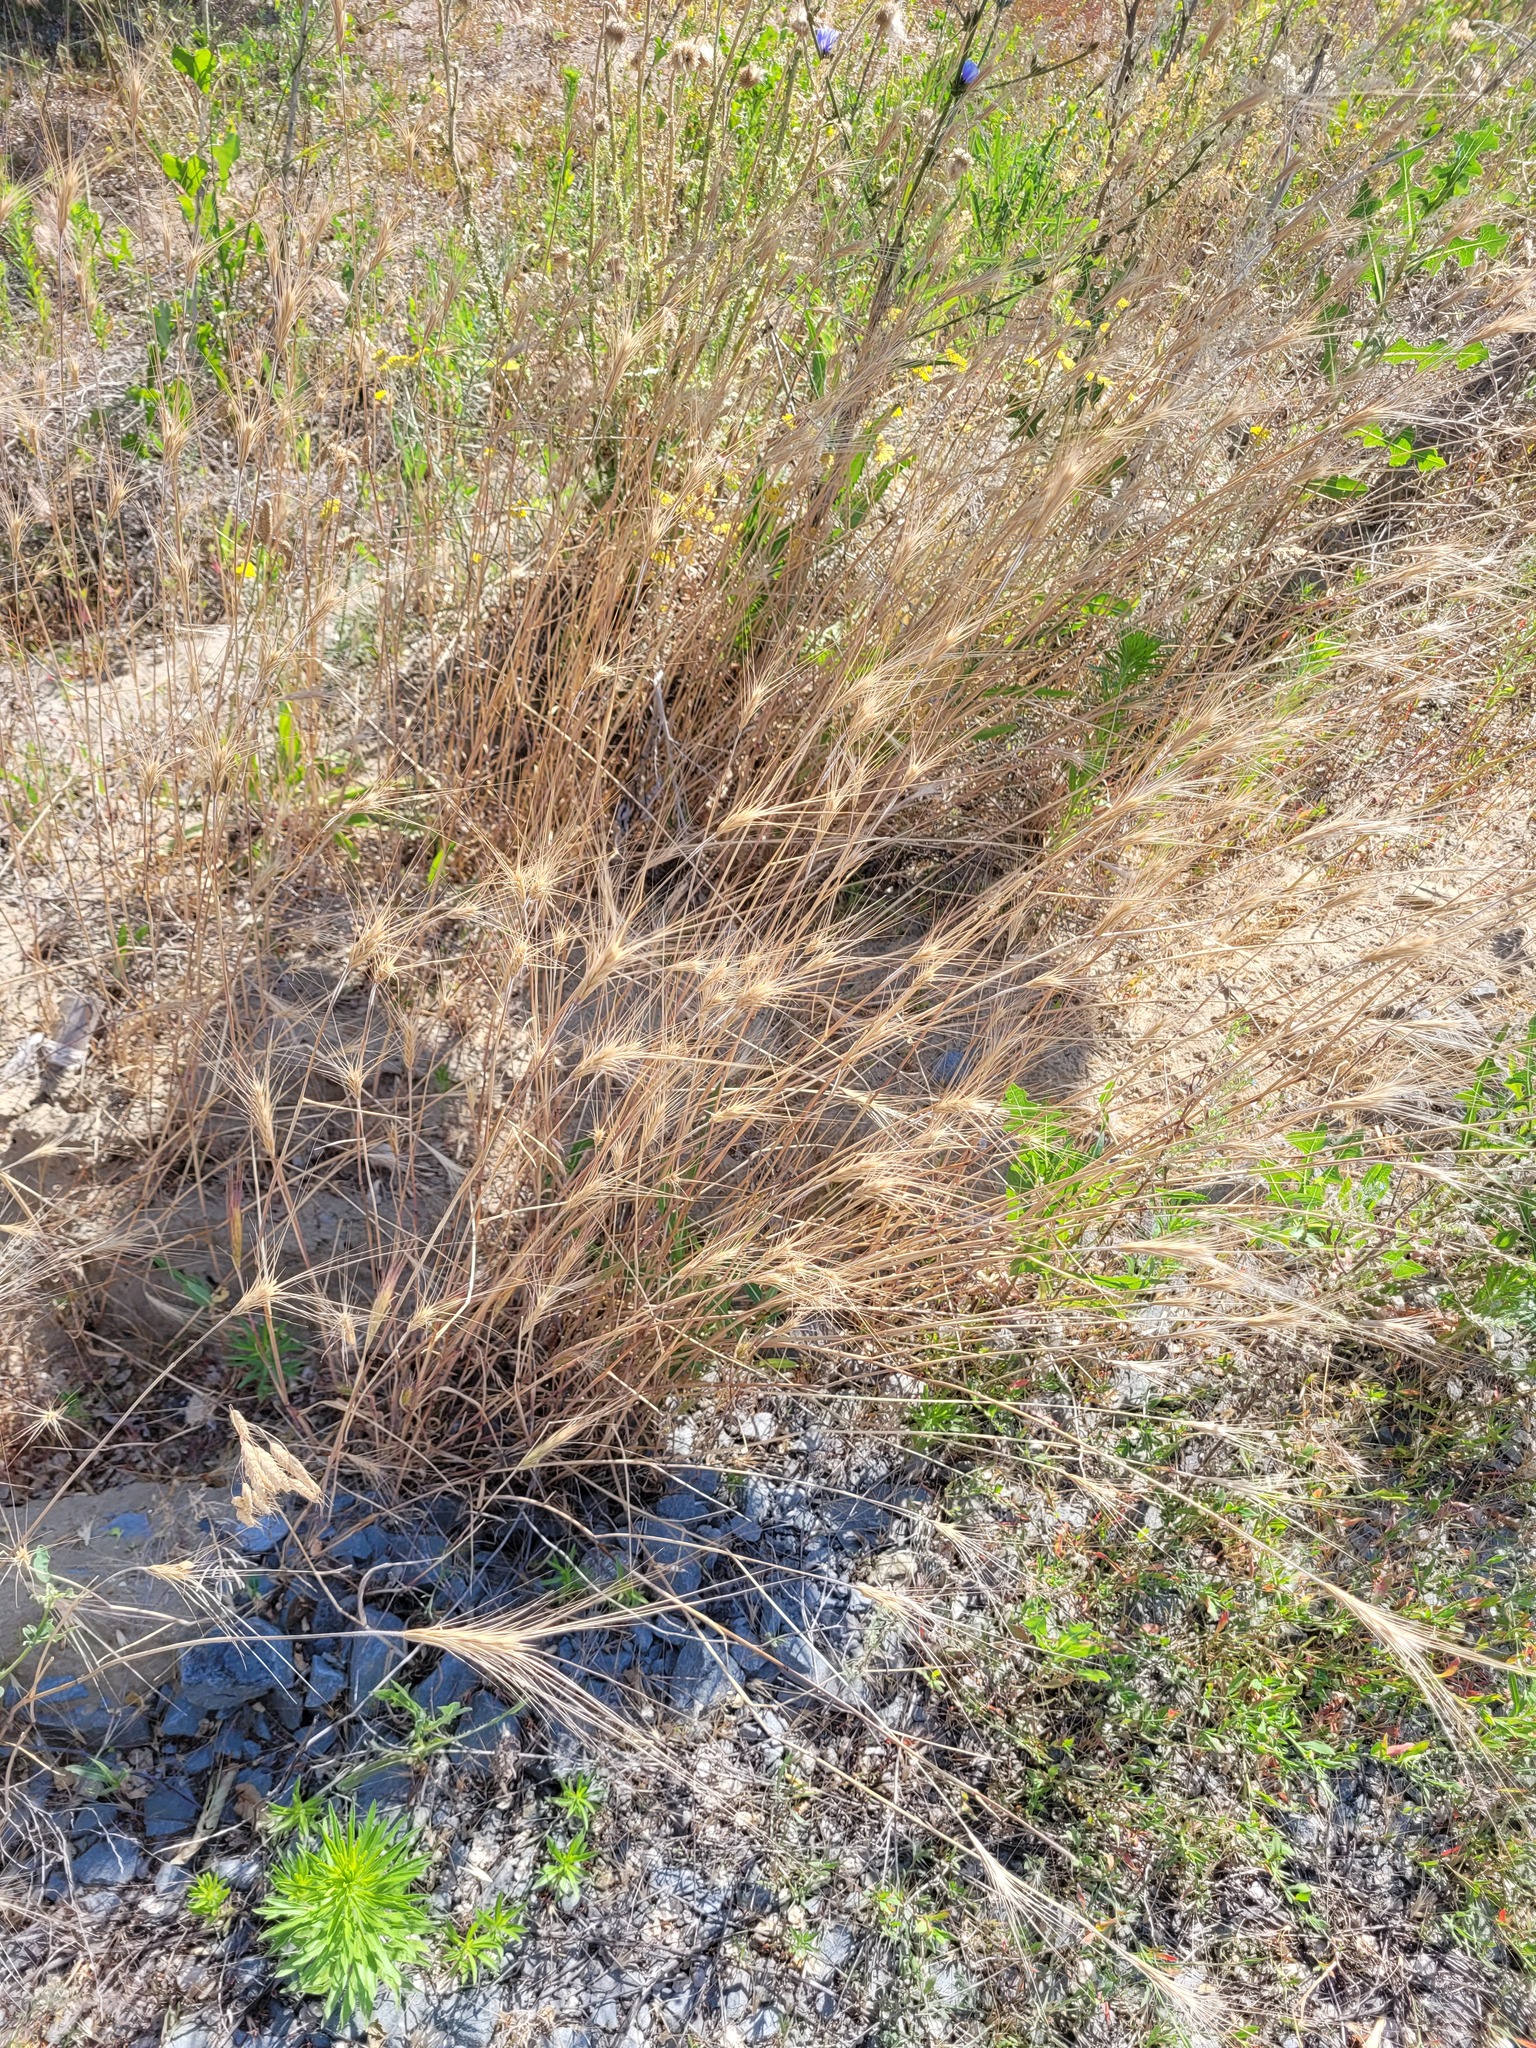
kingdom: Plantae
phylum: Tracheophyta
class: Liliopsida
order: Poales
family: Poaceae
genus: Secale
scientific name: Secale sylvestre
